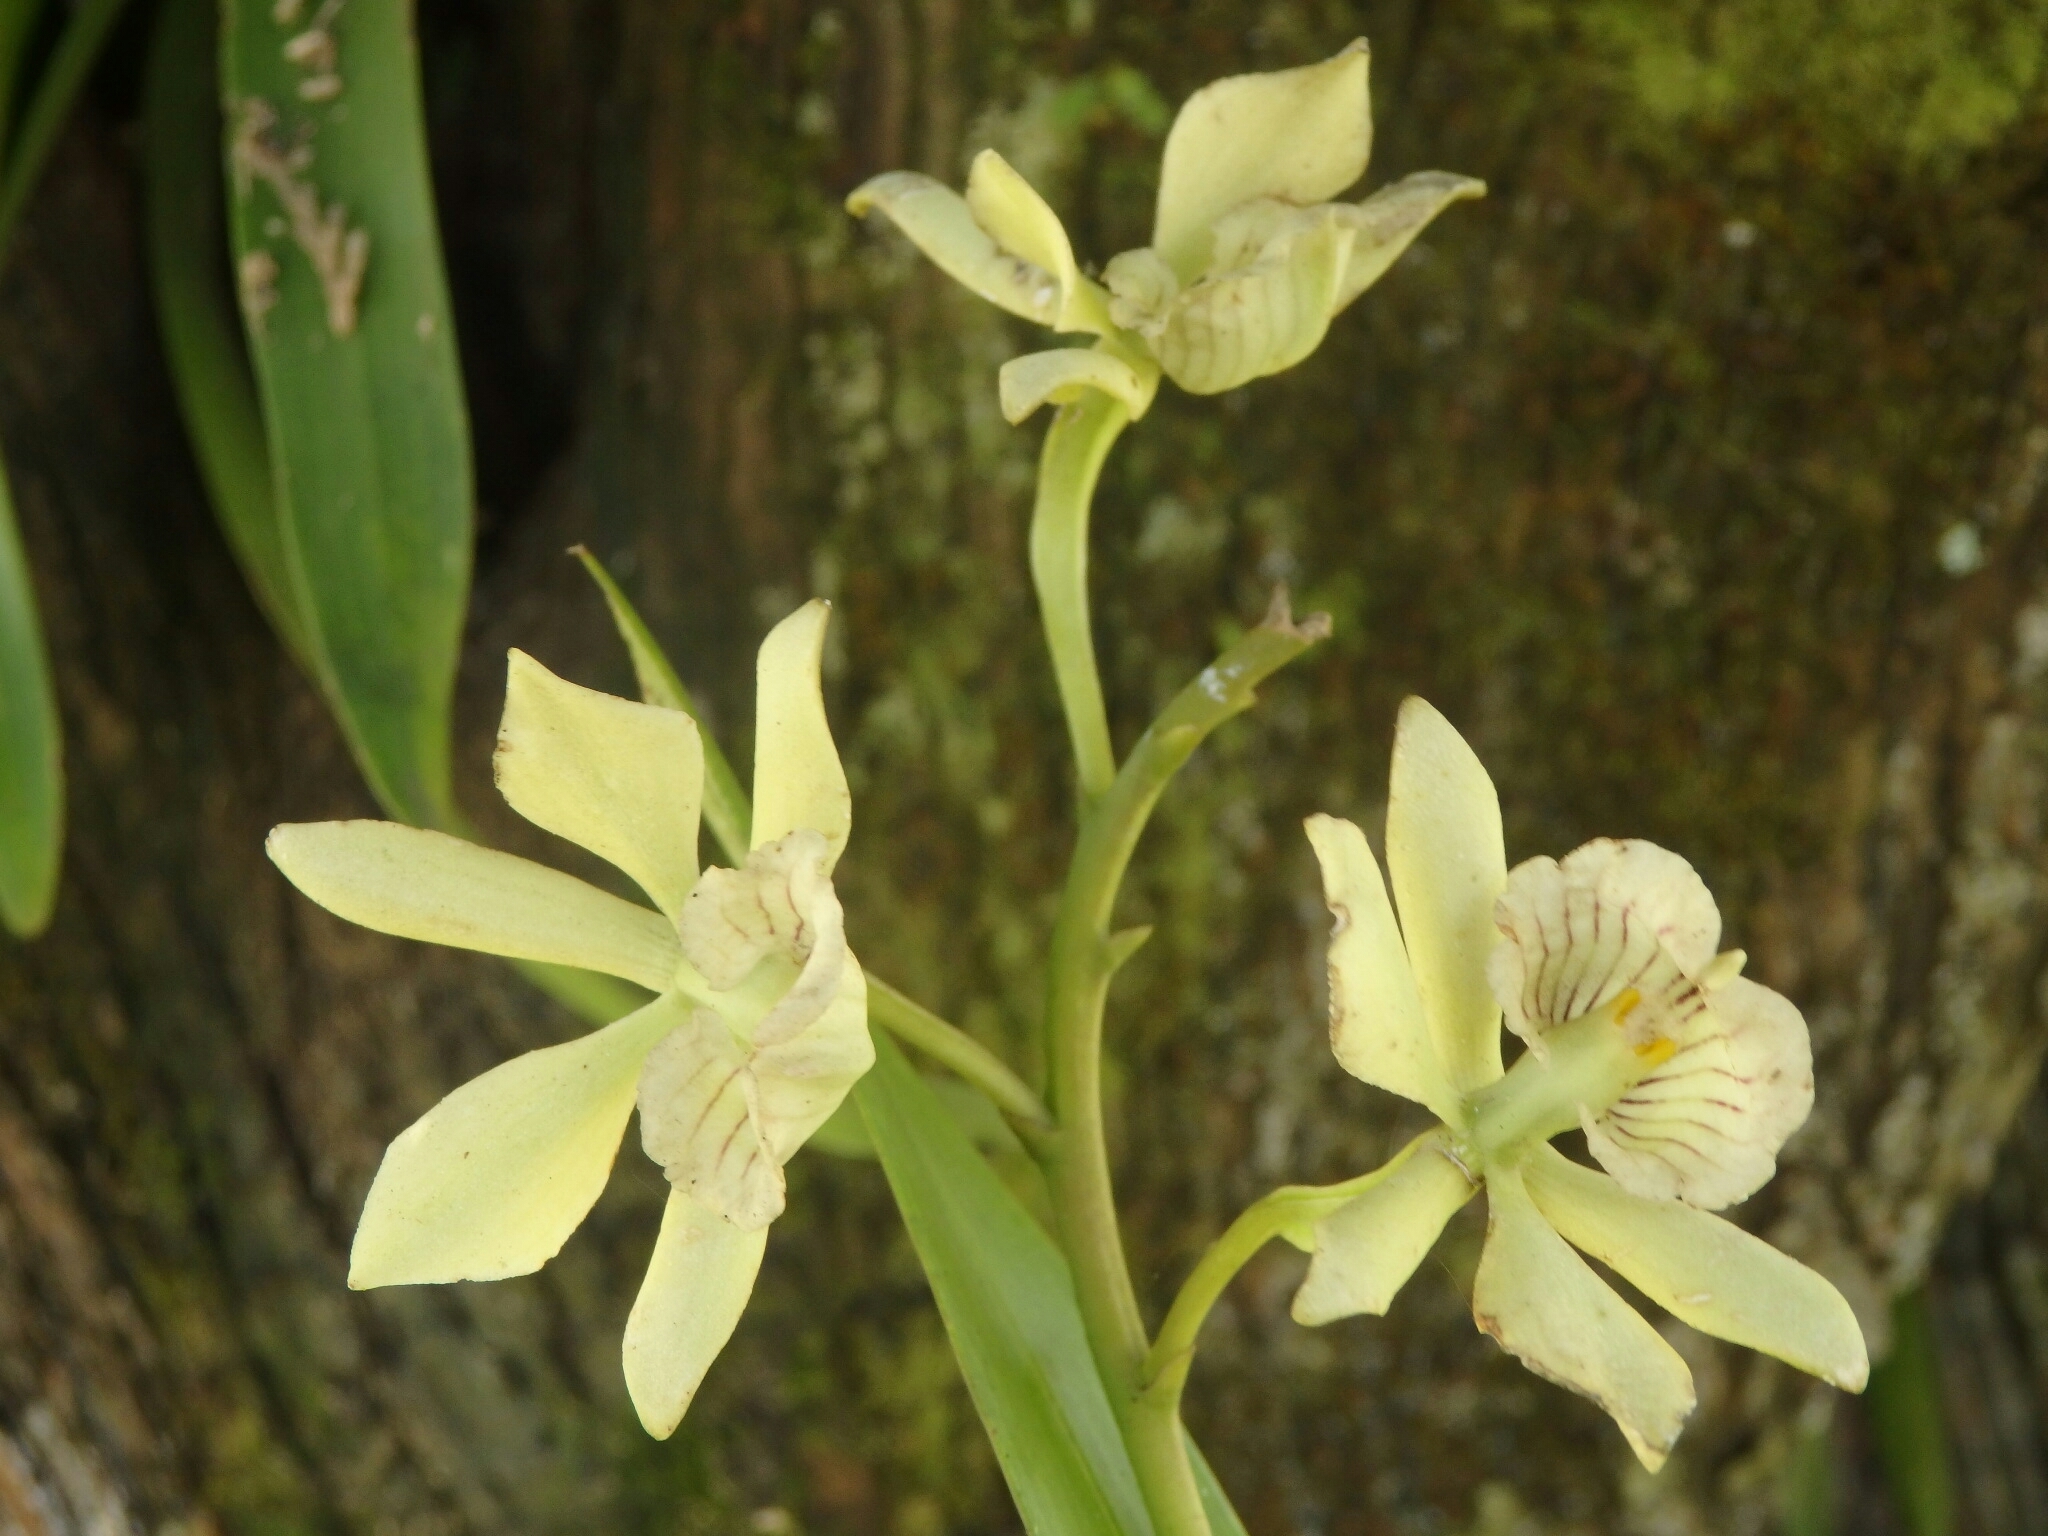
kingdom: Plantae
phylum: Tracheophyta
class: Liliopsida
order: Asparagales
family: Orchidaceae
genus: Prosthechea
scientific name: Prosthechea radiata
